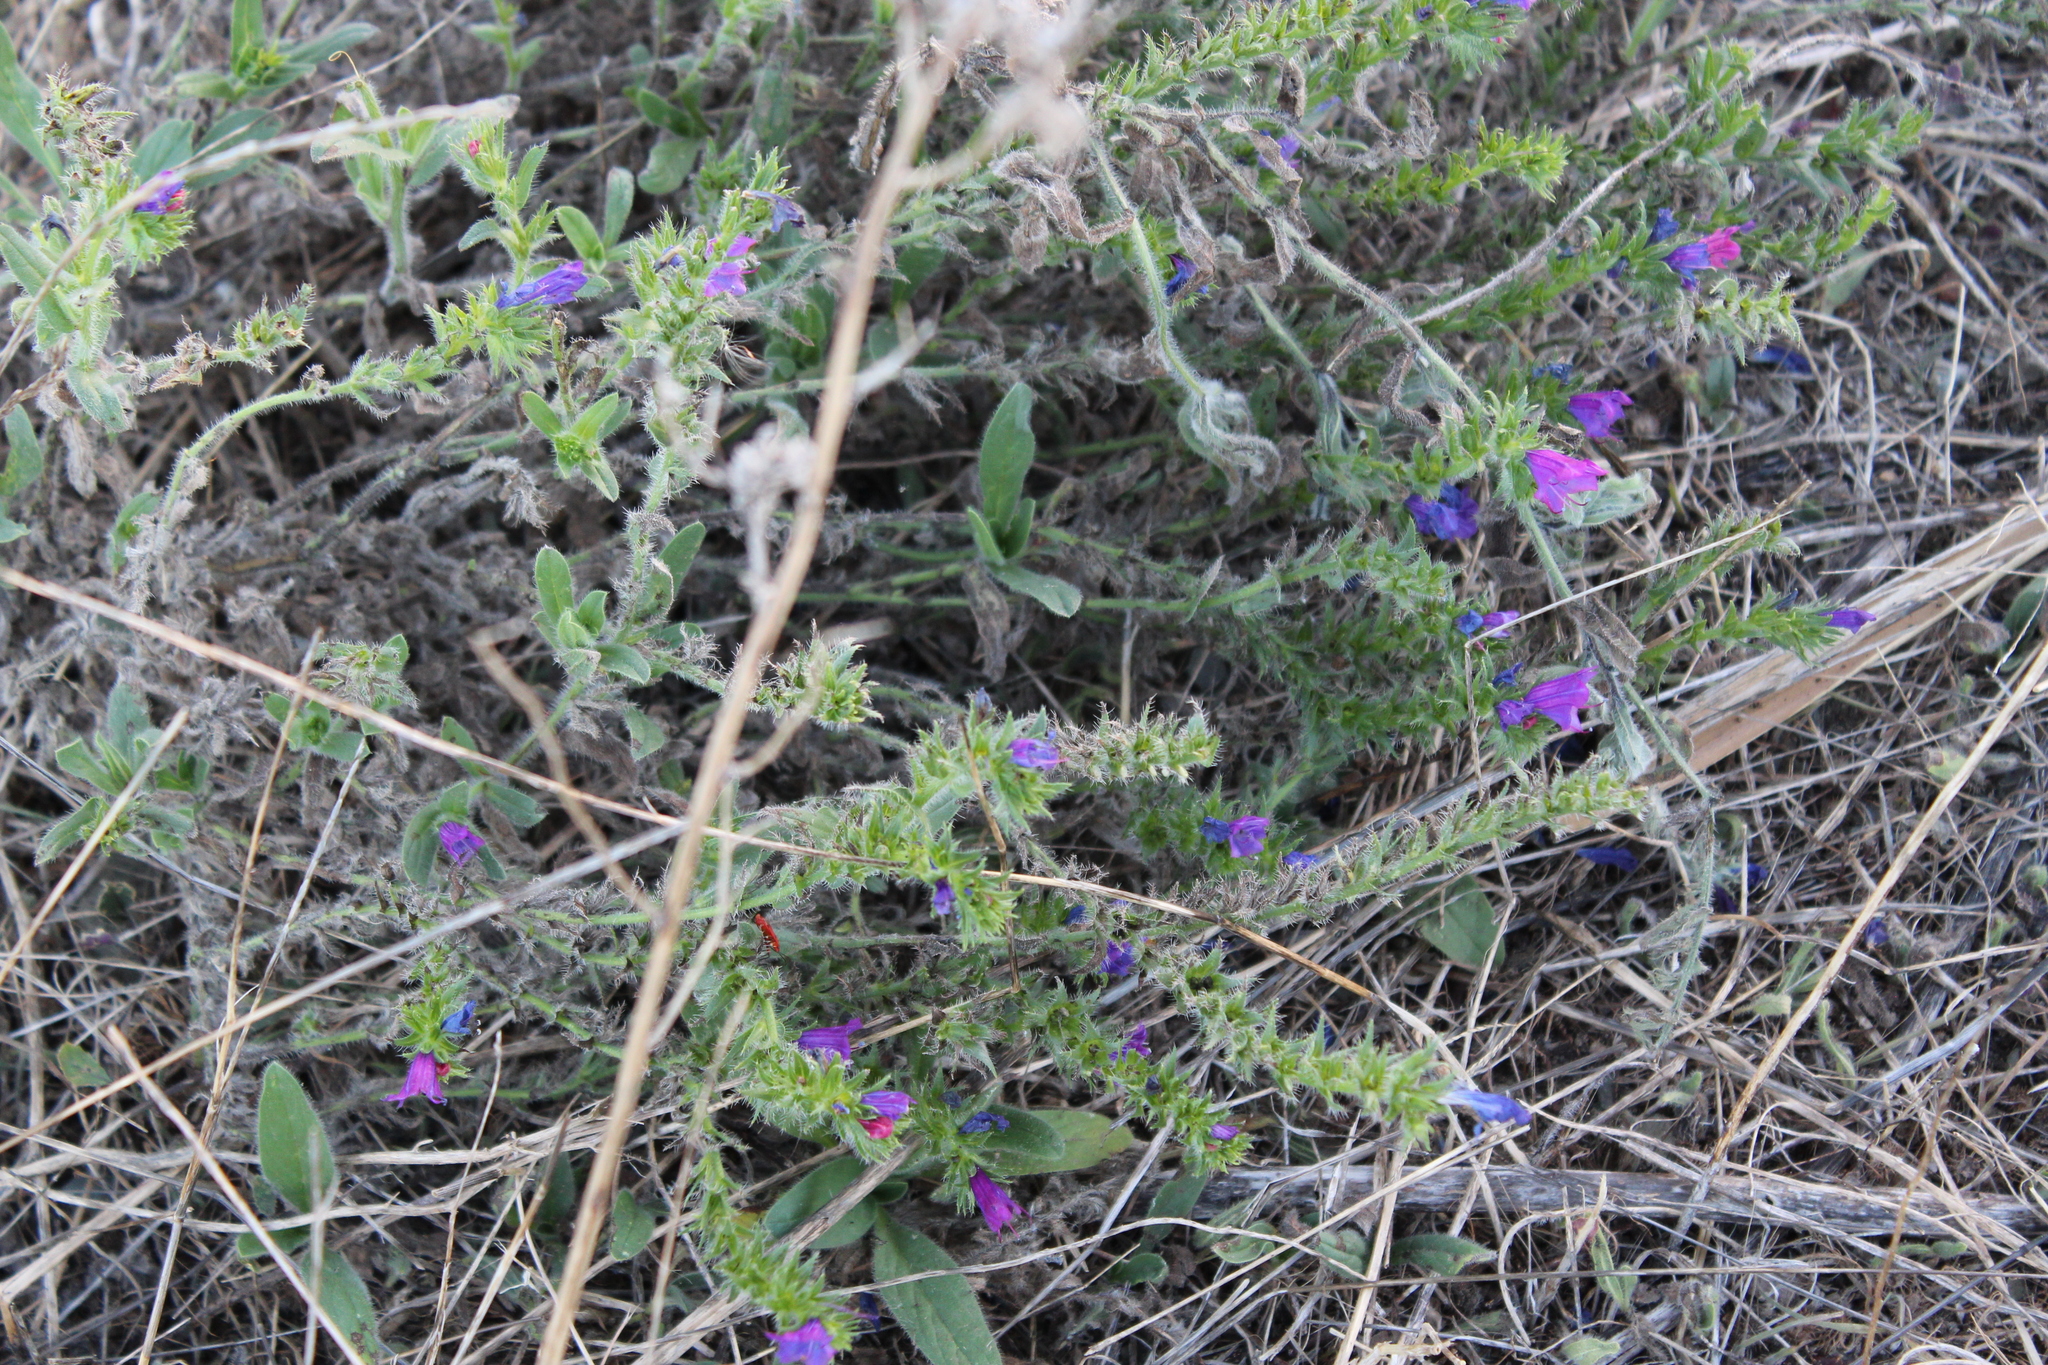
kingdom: Plantae
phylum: Tracheophyta
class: Magnoliopsida
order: Boraginales
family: Boraginaceae
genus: Echium
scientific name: Echium plantagineum
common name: Purple viper's-bugloss
